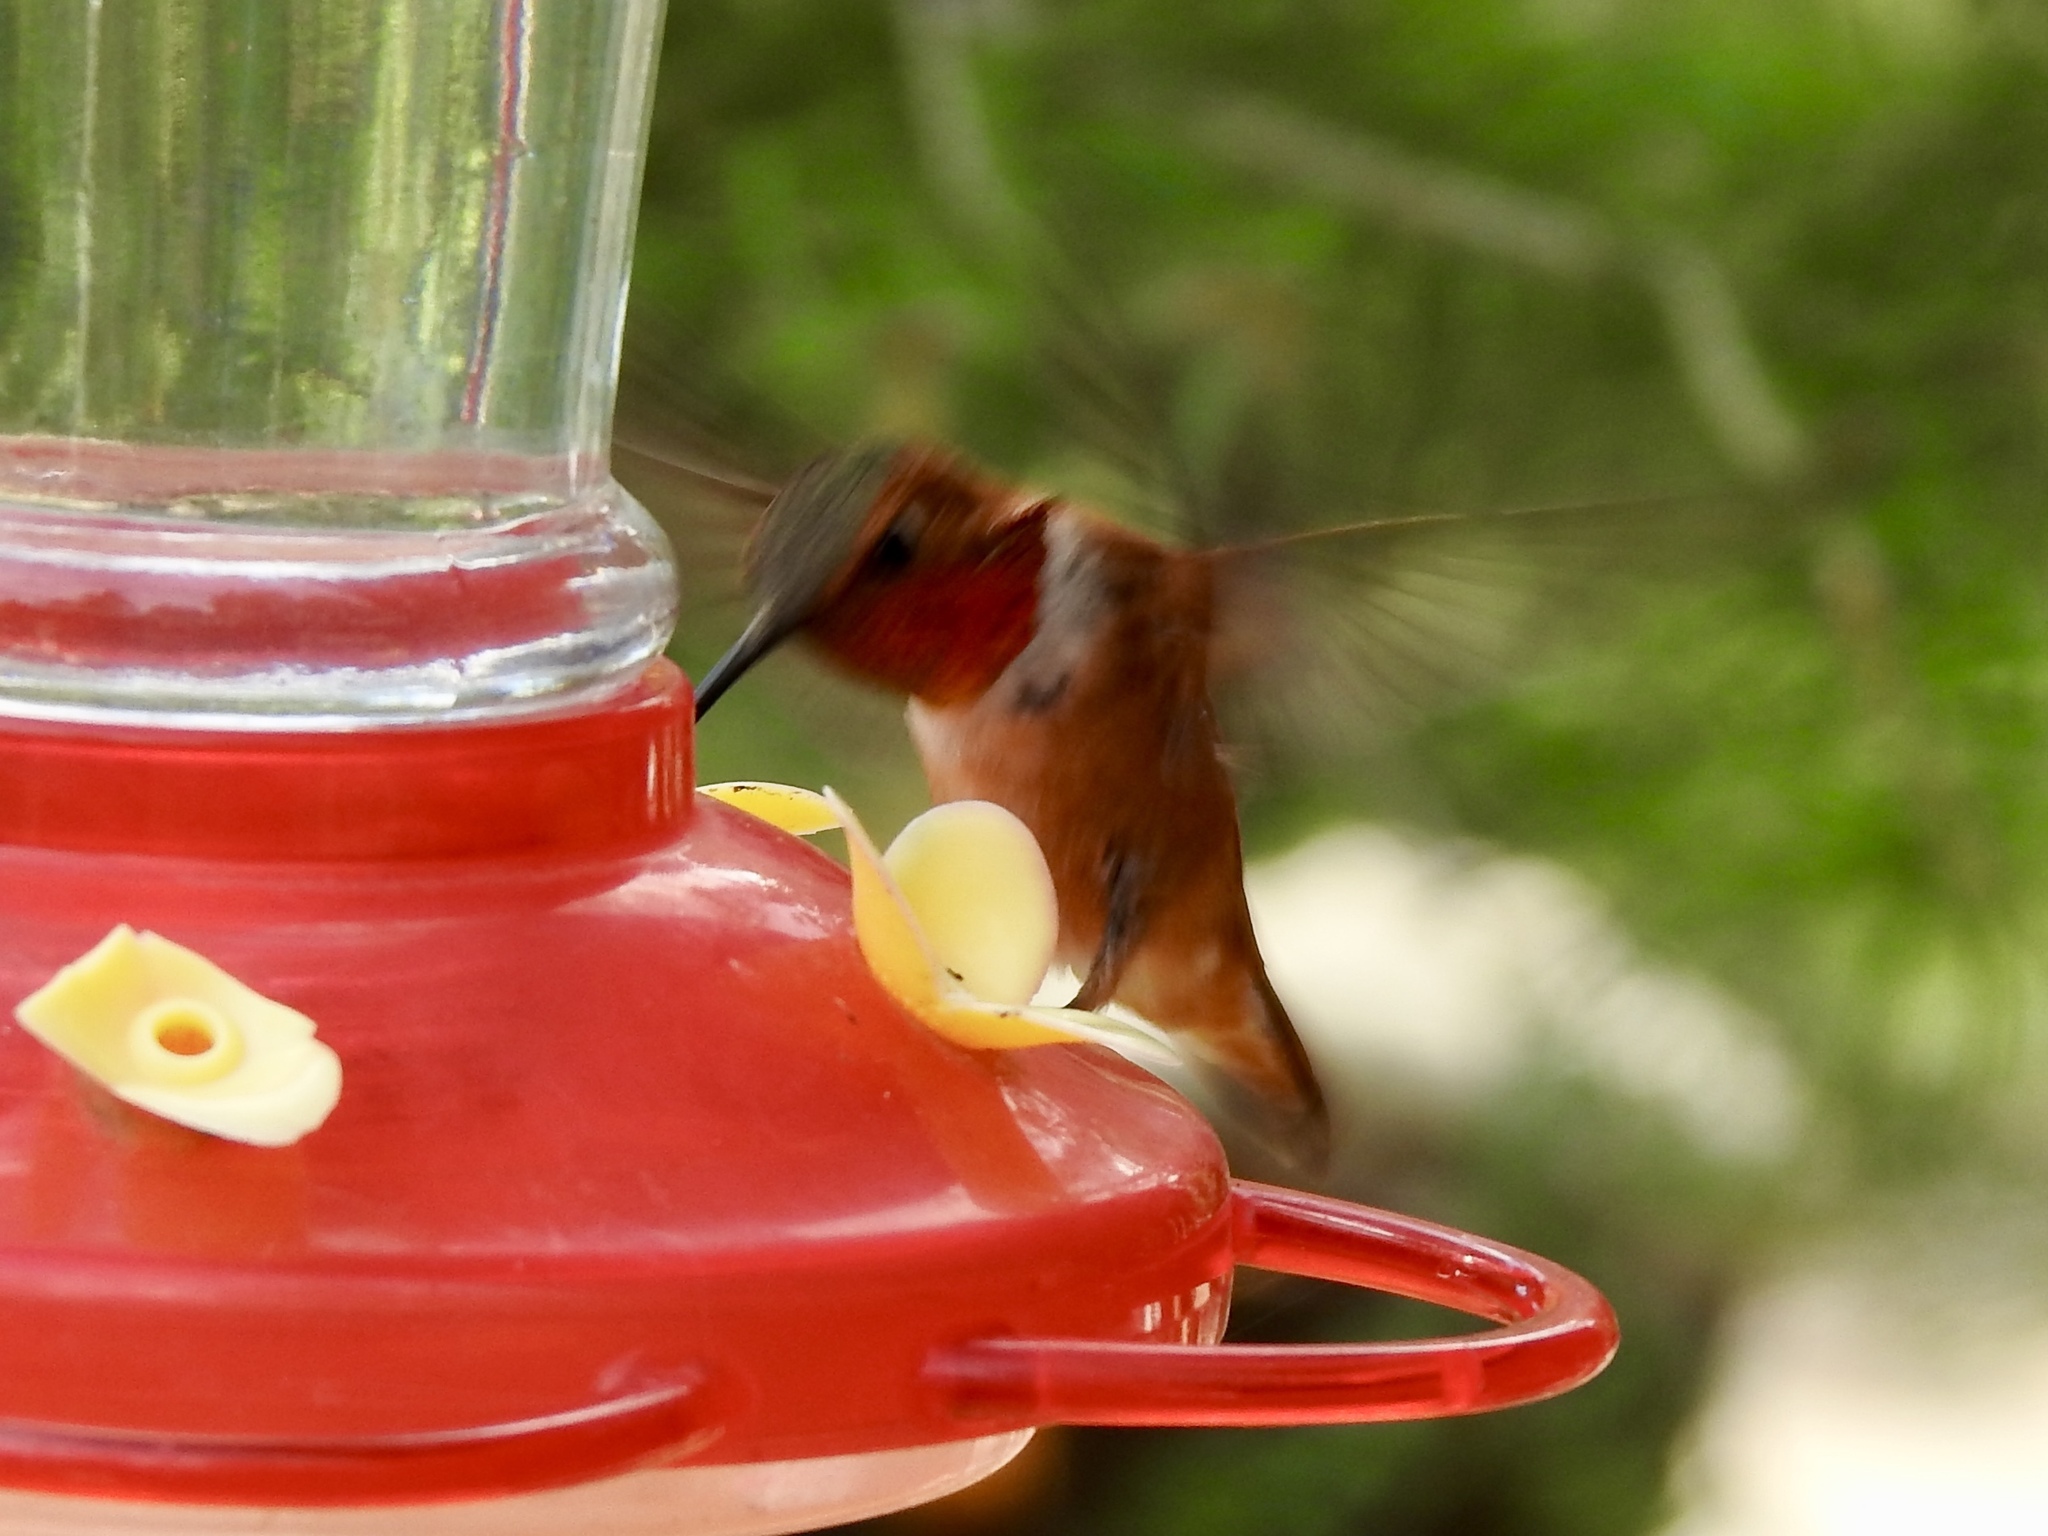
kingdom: Animalia
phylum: Chordata
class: Aves
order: Apodiformes
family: Trochilidae
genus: Selasphorus
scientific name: Selasphorus rufus
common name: Rufous hummingbird
